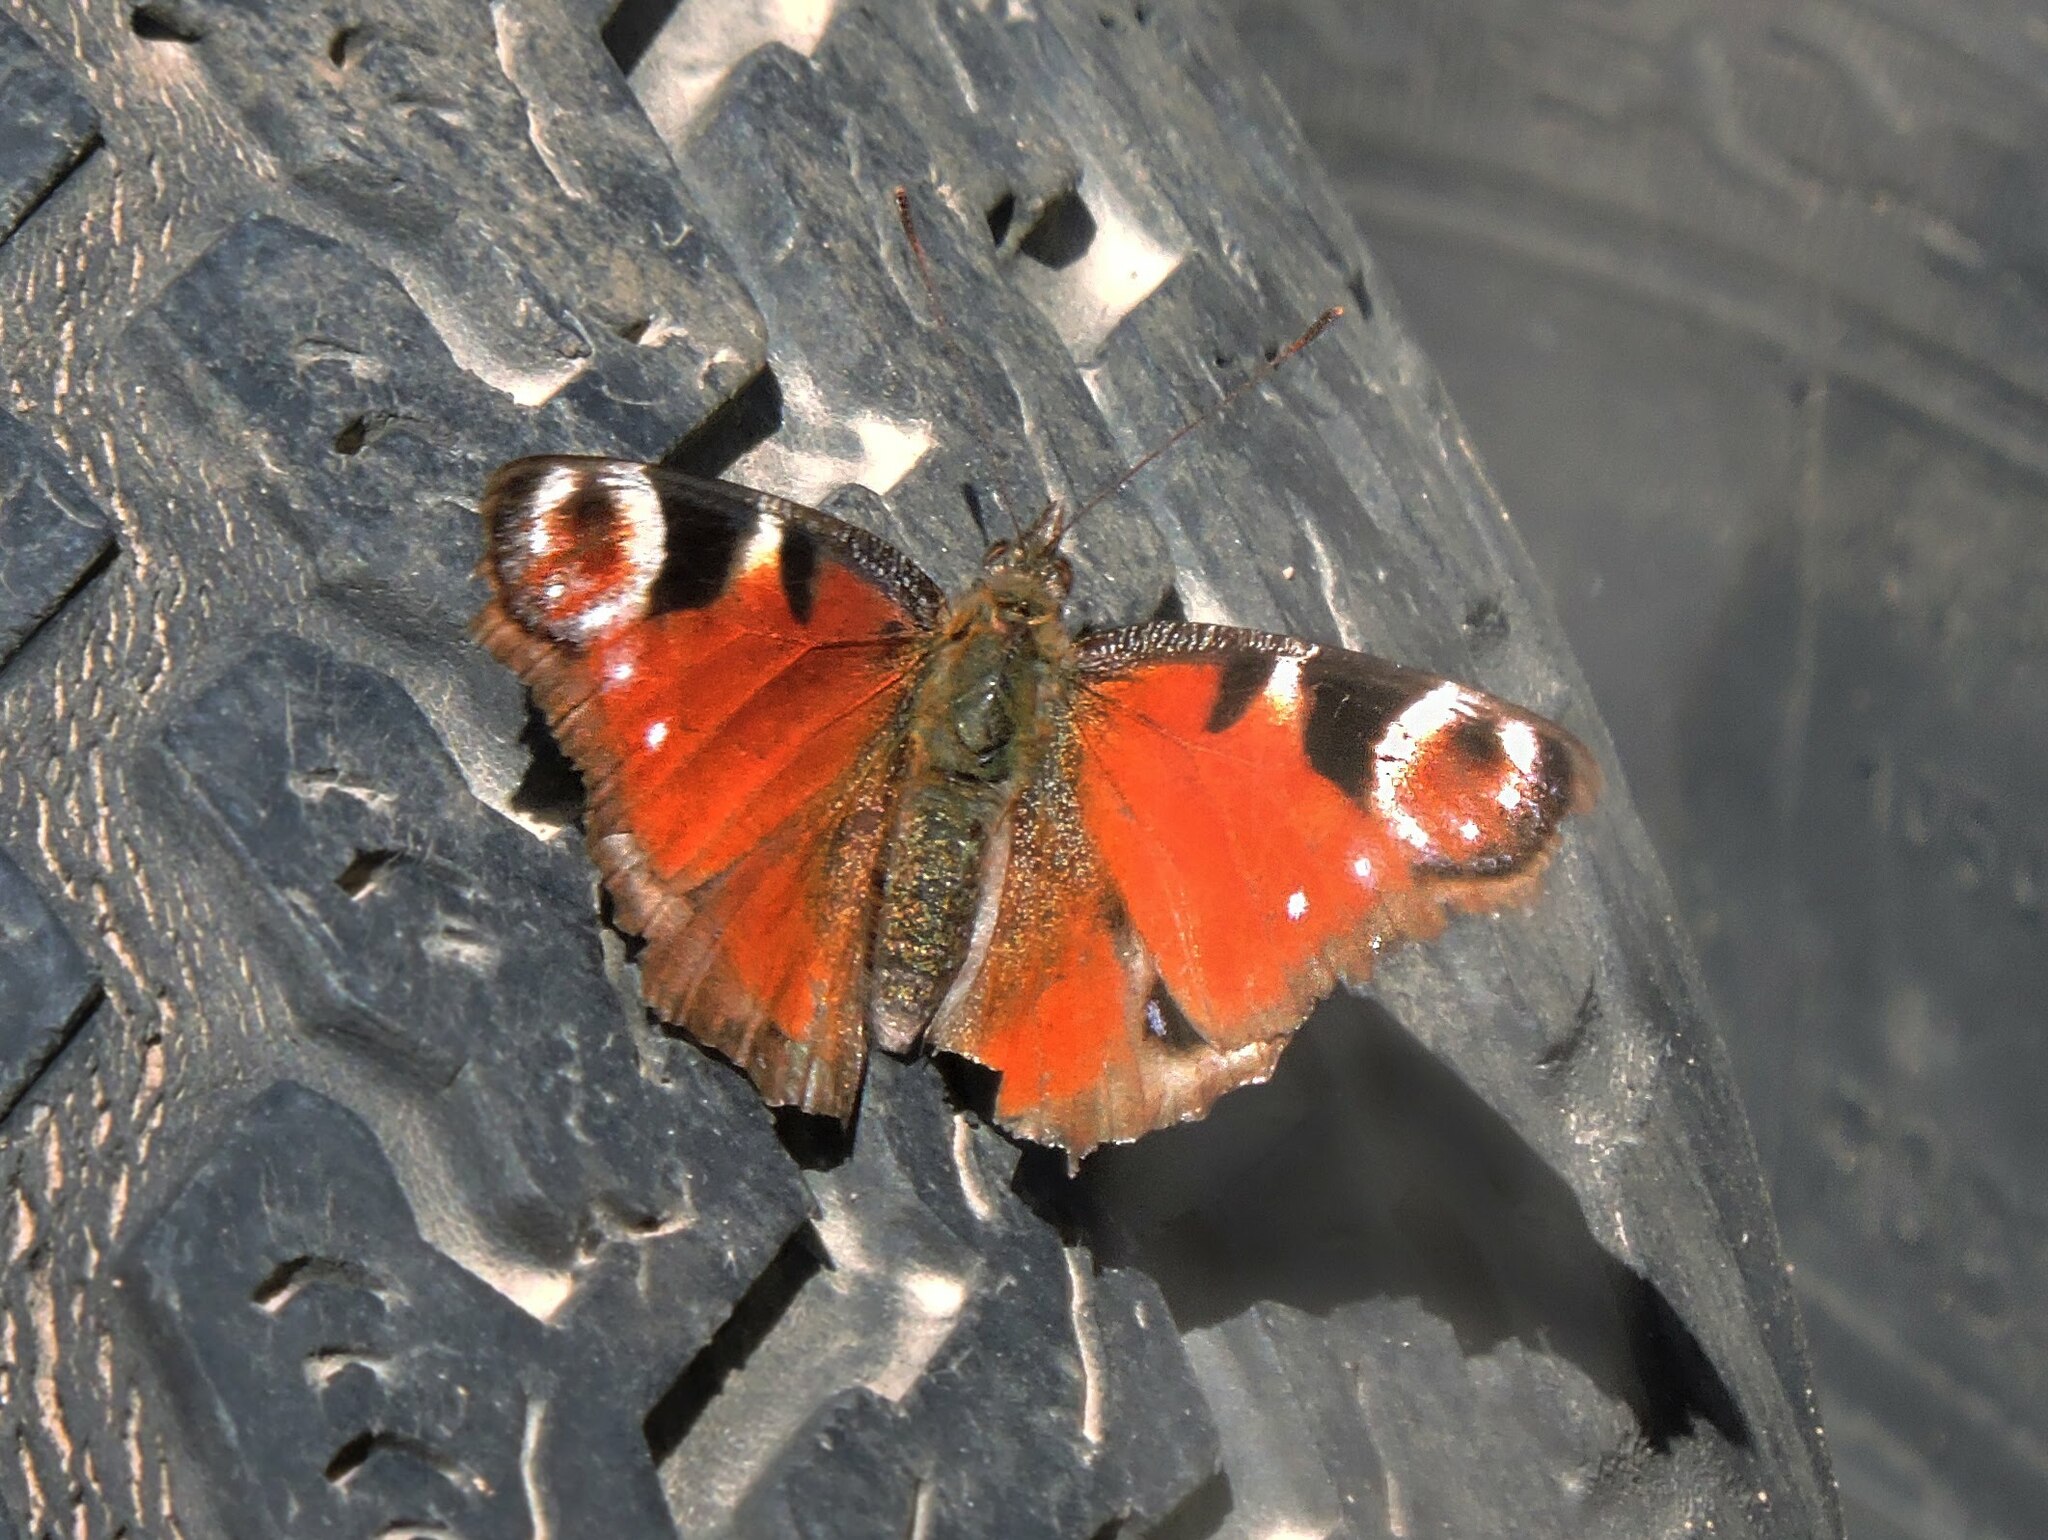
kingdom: Animalia
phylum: Arthropoda
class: Insecta
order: Lepidoptera
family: Nymphalidae
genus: Aglais
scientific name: Aglais io
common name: Peacock
